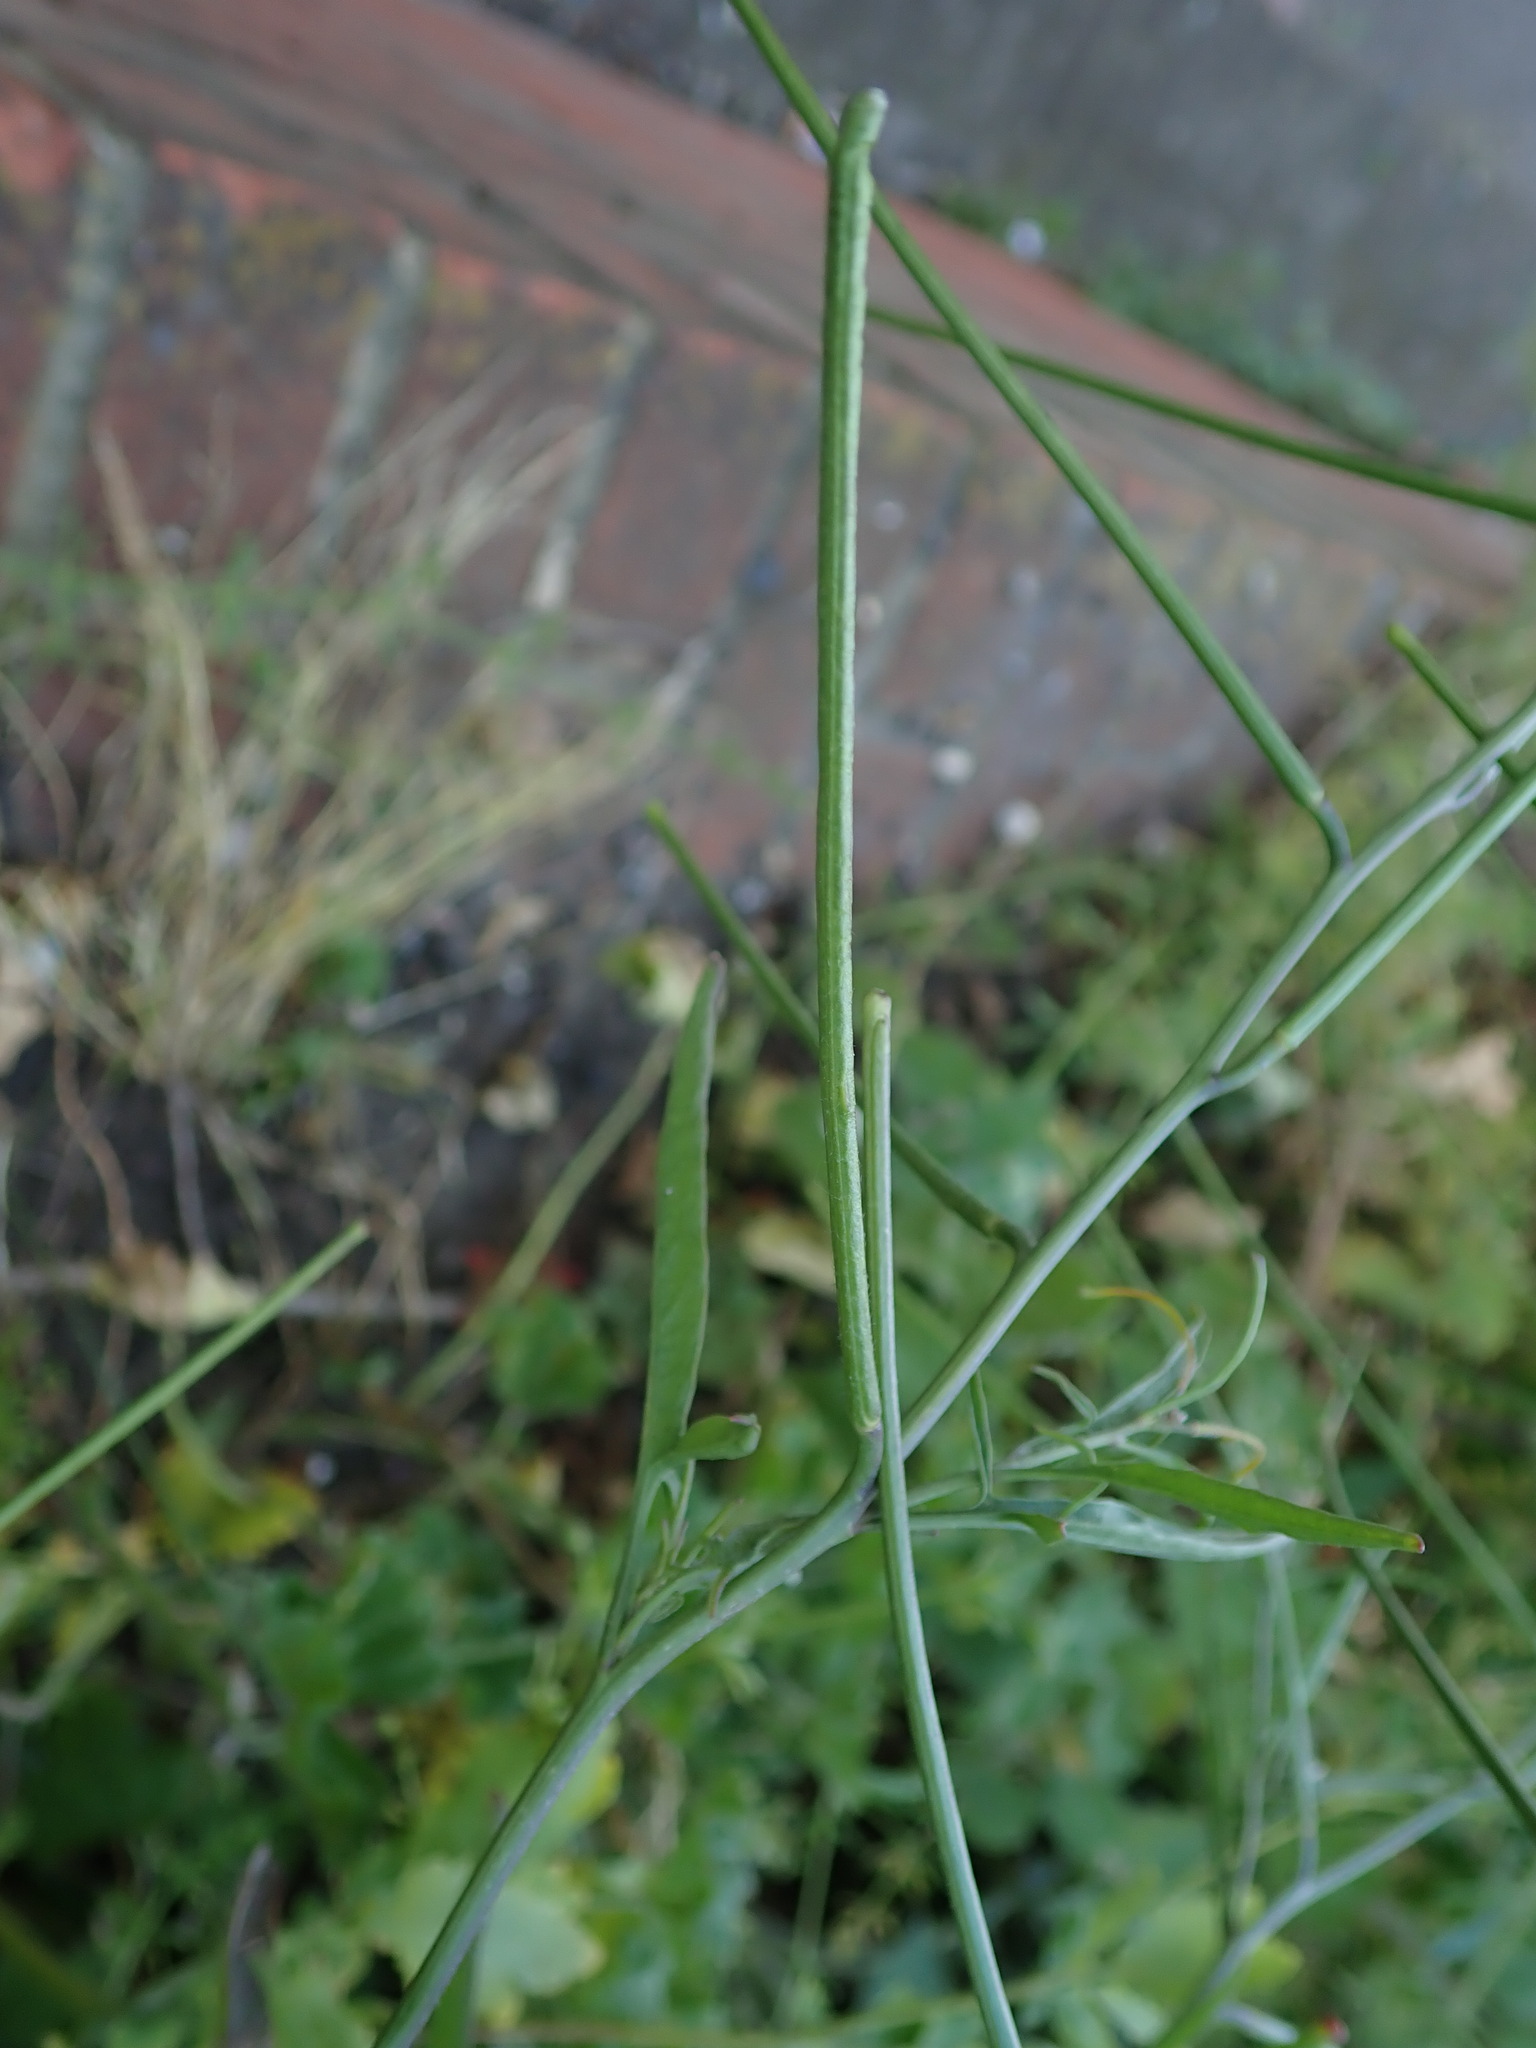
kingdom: Plantae
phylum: Tracheophyta
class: Magnoliopsida
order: Brassicales
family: Brassicaceae
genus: Sisymbrium
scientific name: Sisymbrium orientale
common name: Eastern rocket
